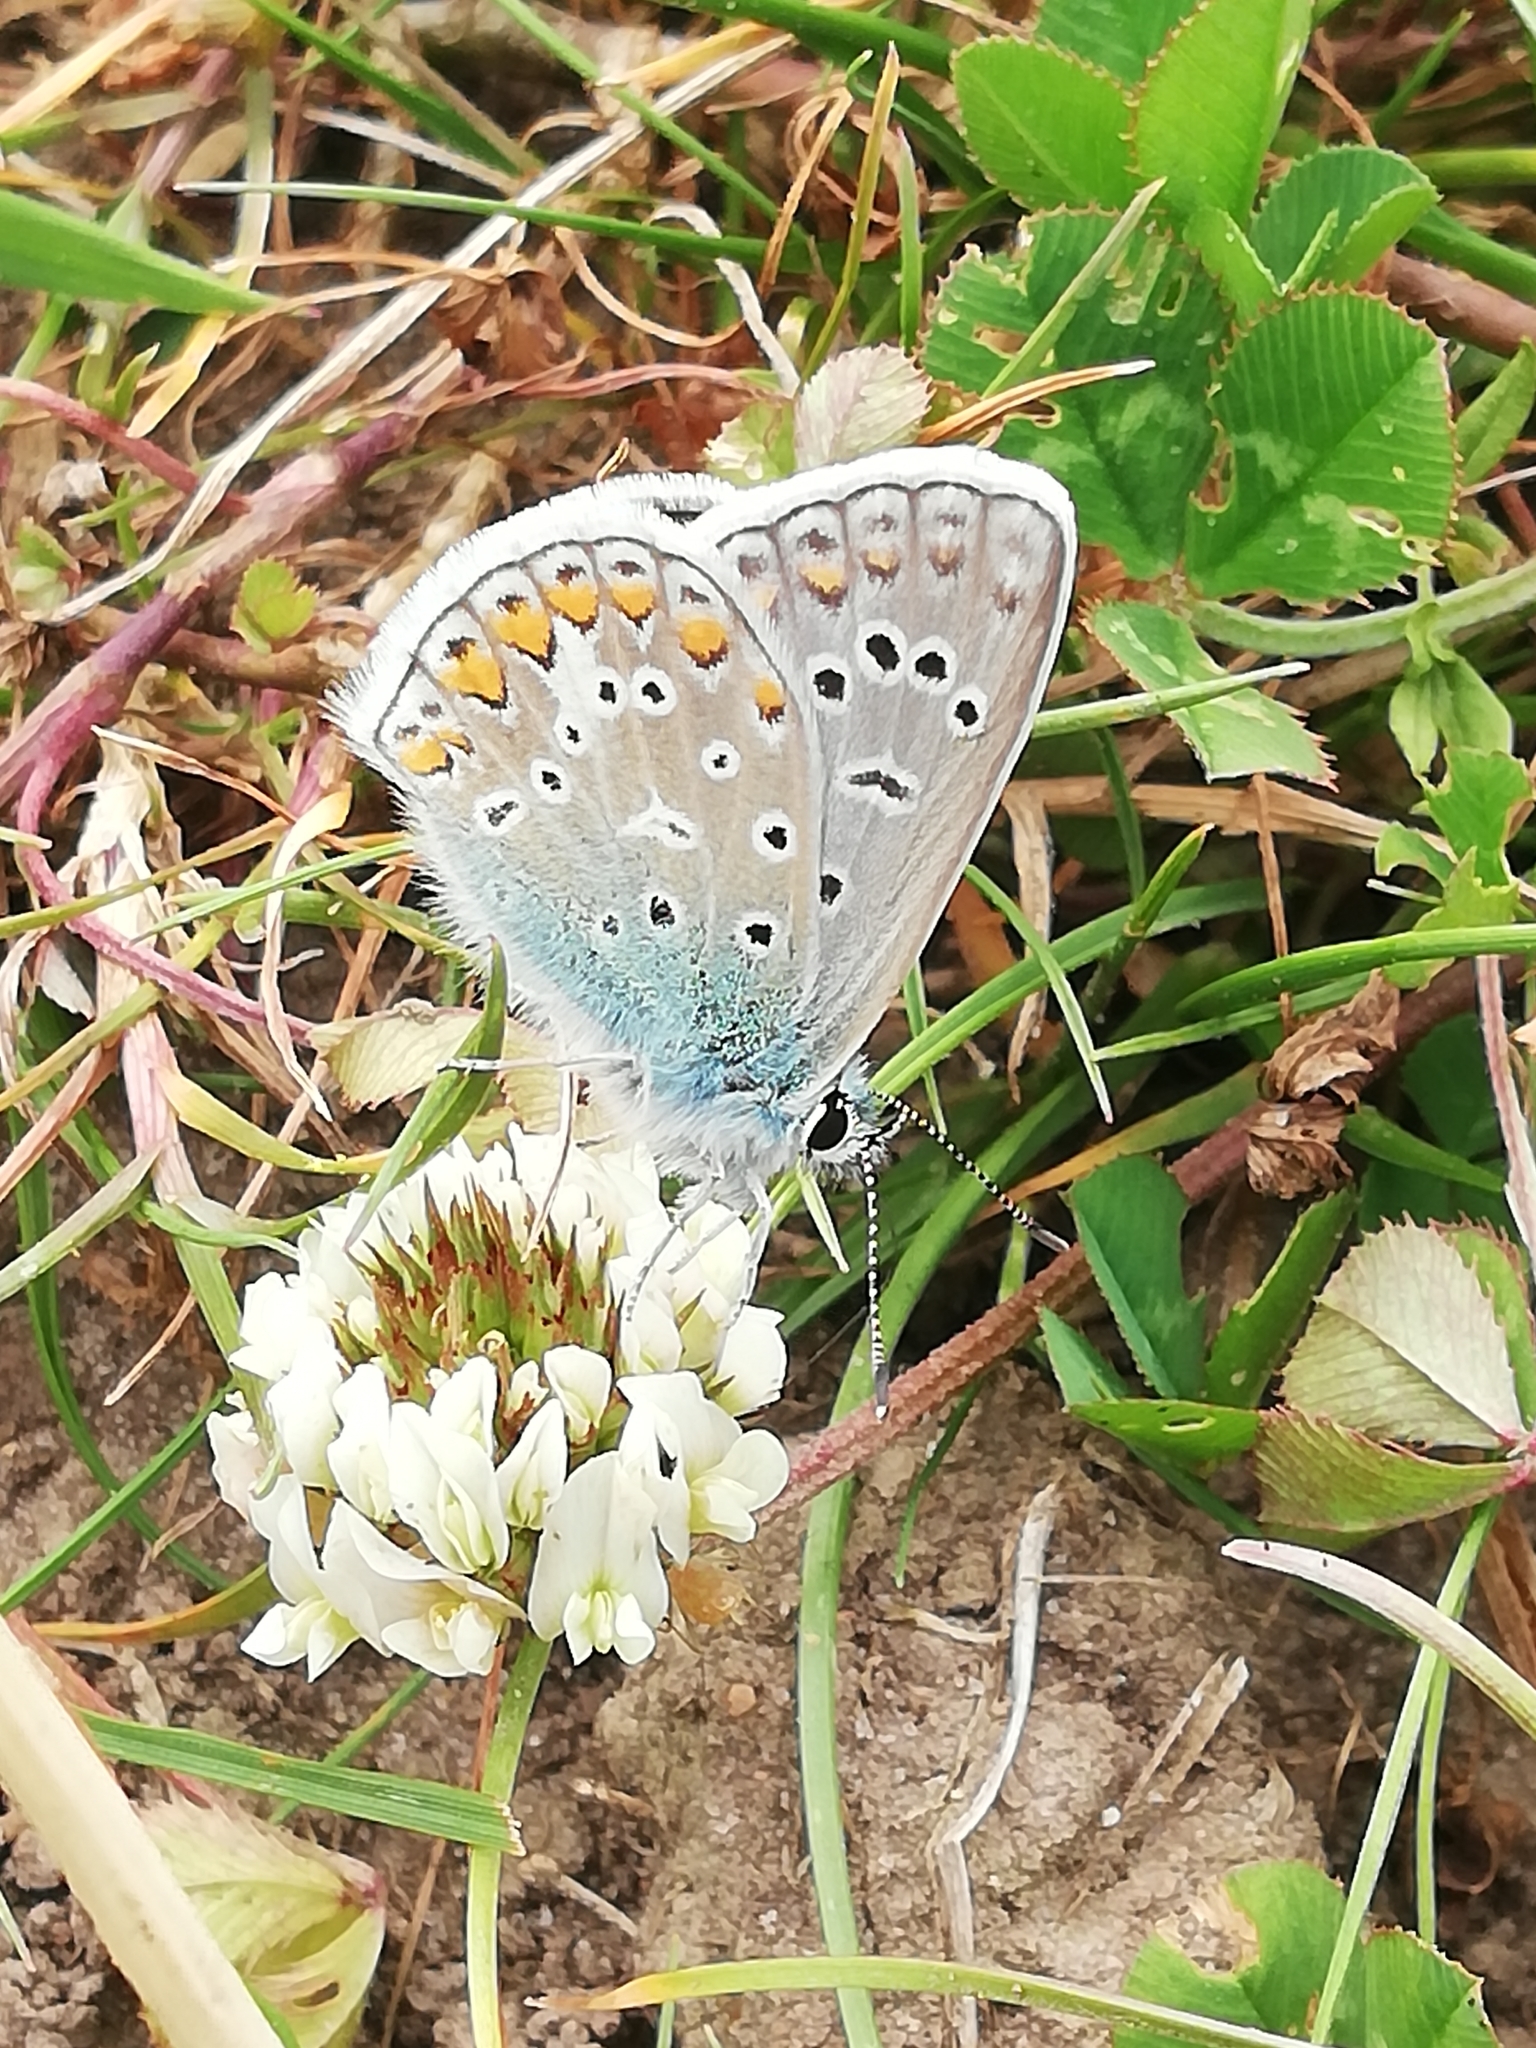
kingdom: Animalia
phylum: Arthropoda
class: Insecta
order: Lepidoptera
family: Lycaenidae
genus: Polyommatus
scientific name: Polyommatus icarus
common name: Common blue
